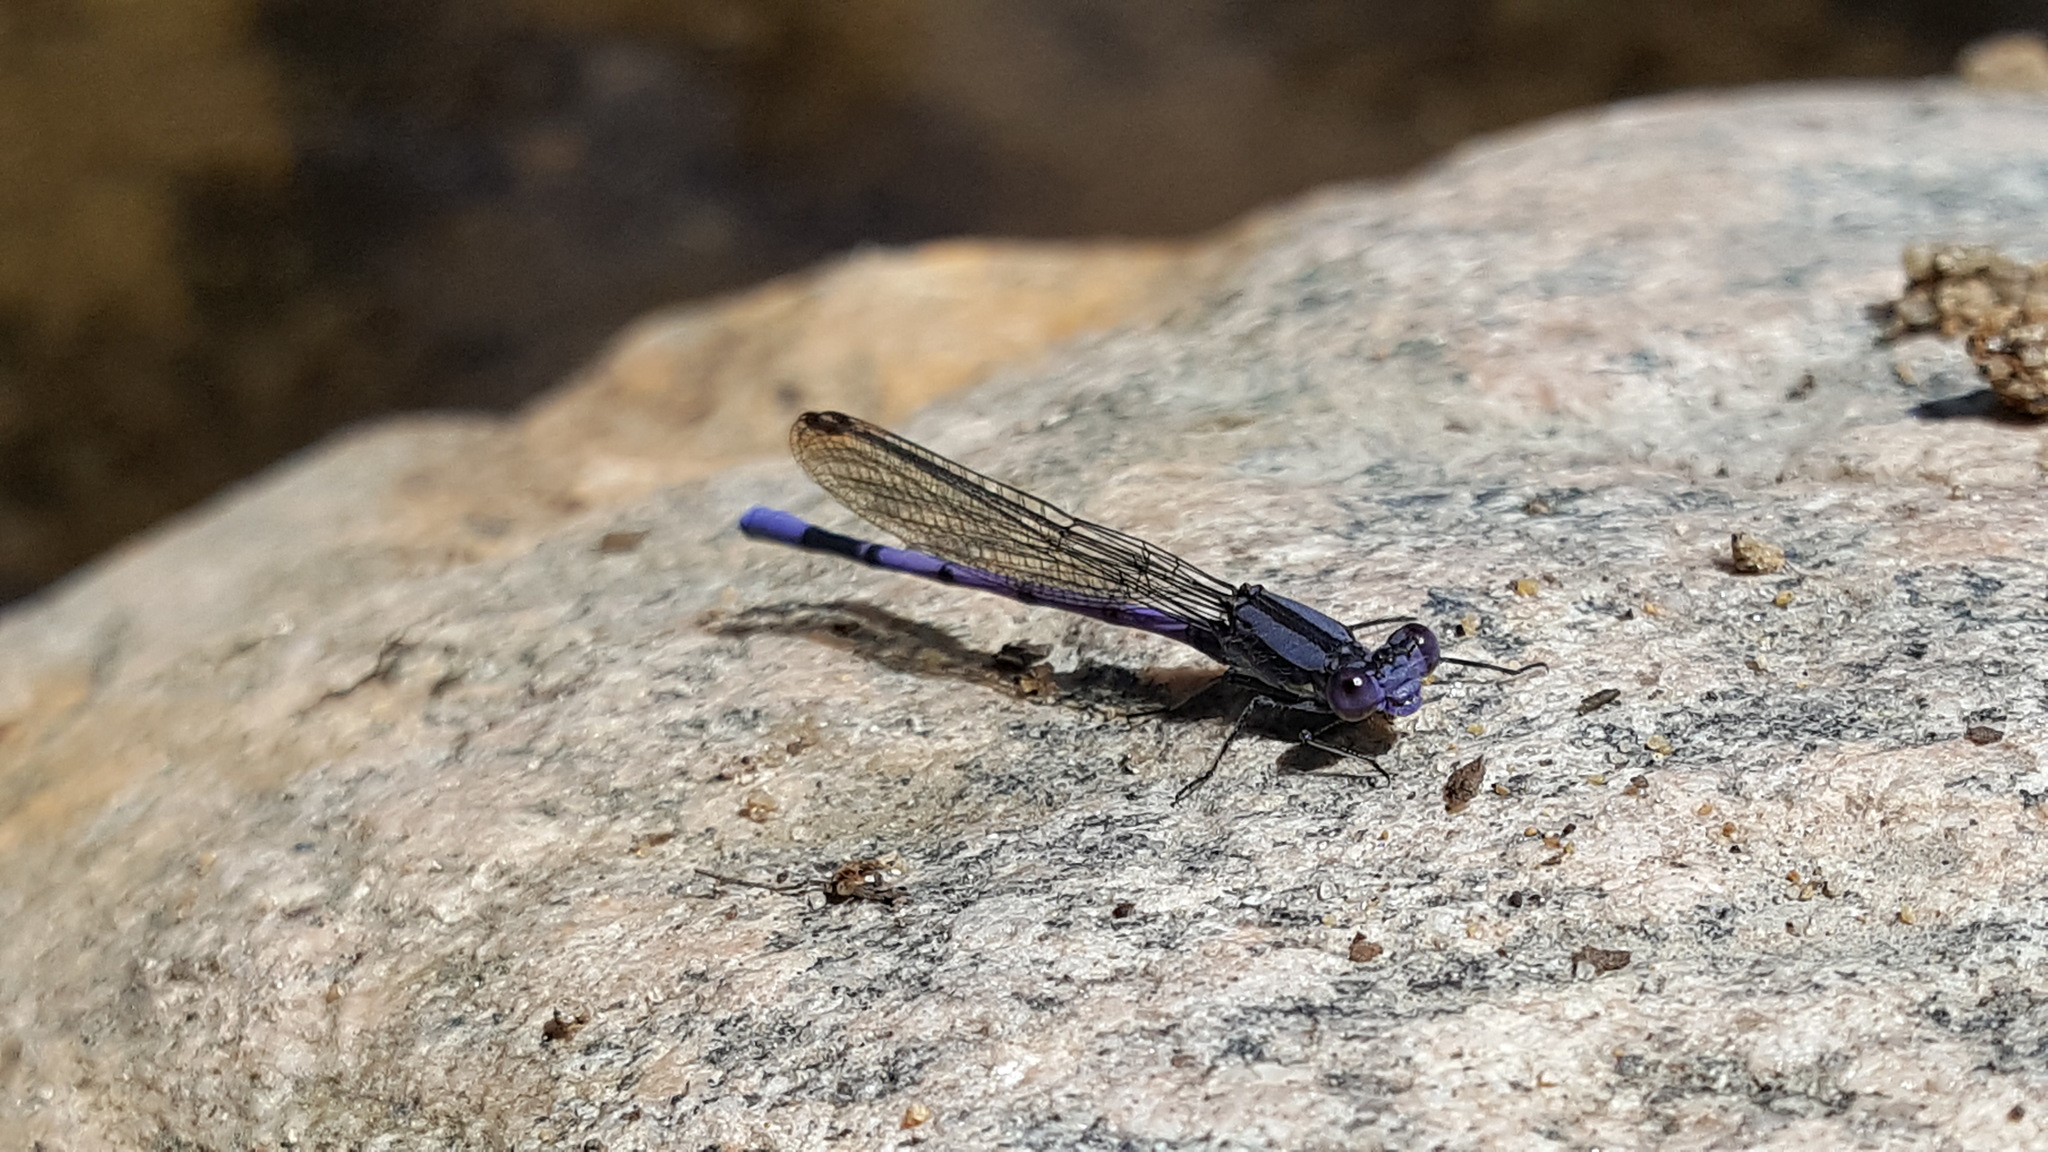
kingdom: Animalia
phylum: Arthropoda
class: Insecta
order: Odonata
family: Coenagrionidae
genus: Argia
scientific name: Argia fumipennis
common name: Variable dancer
